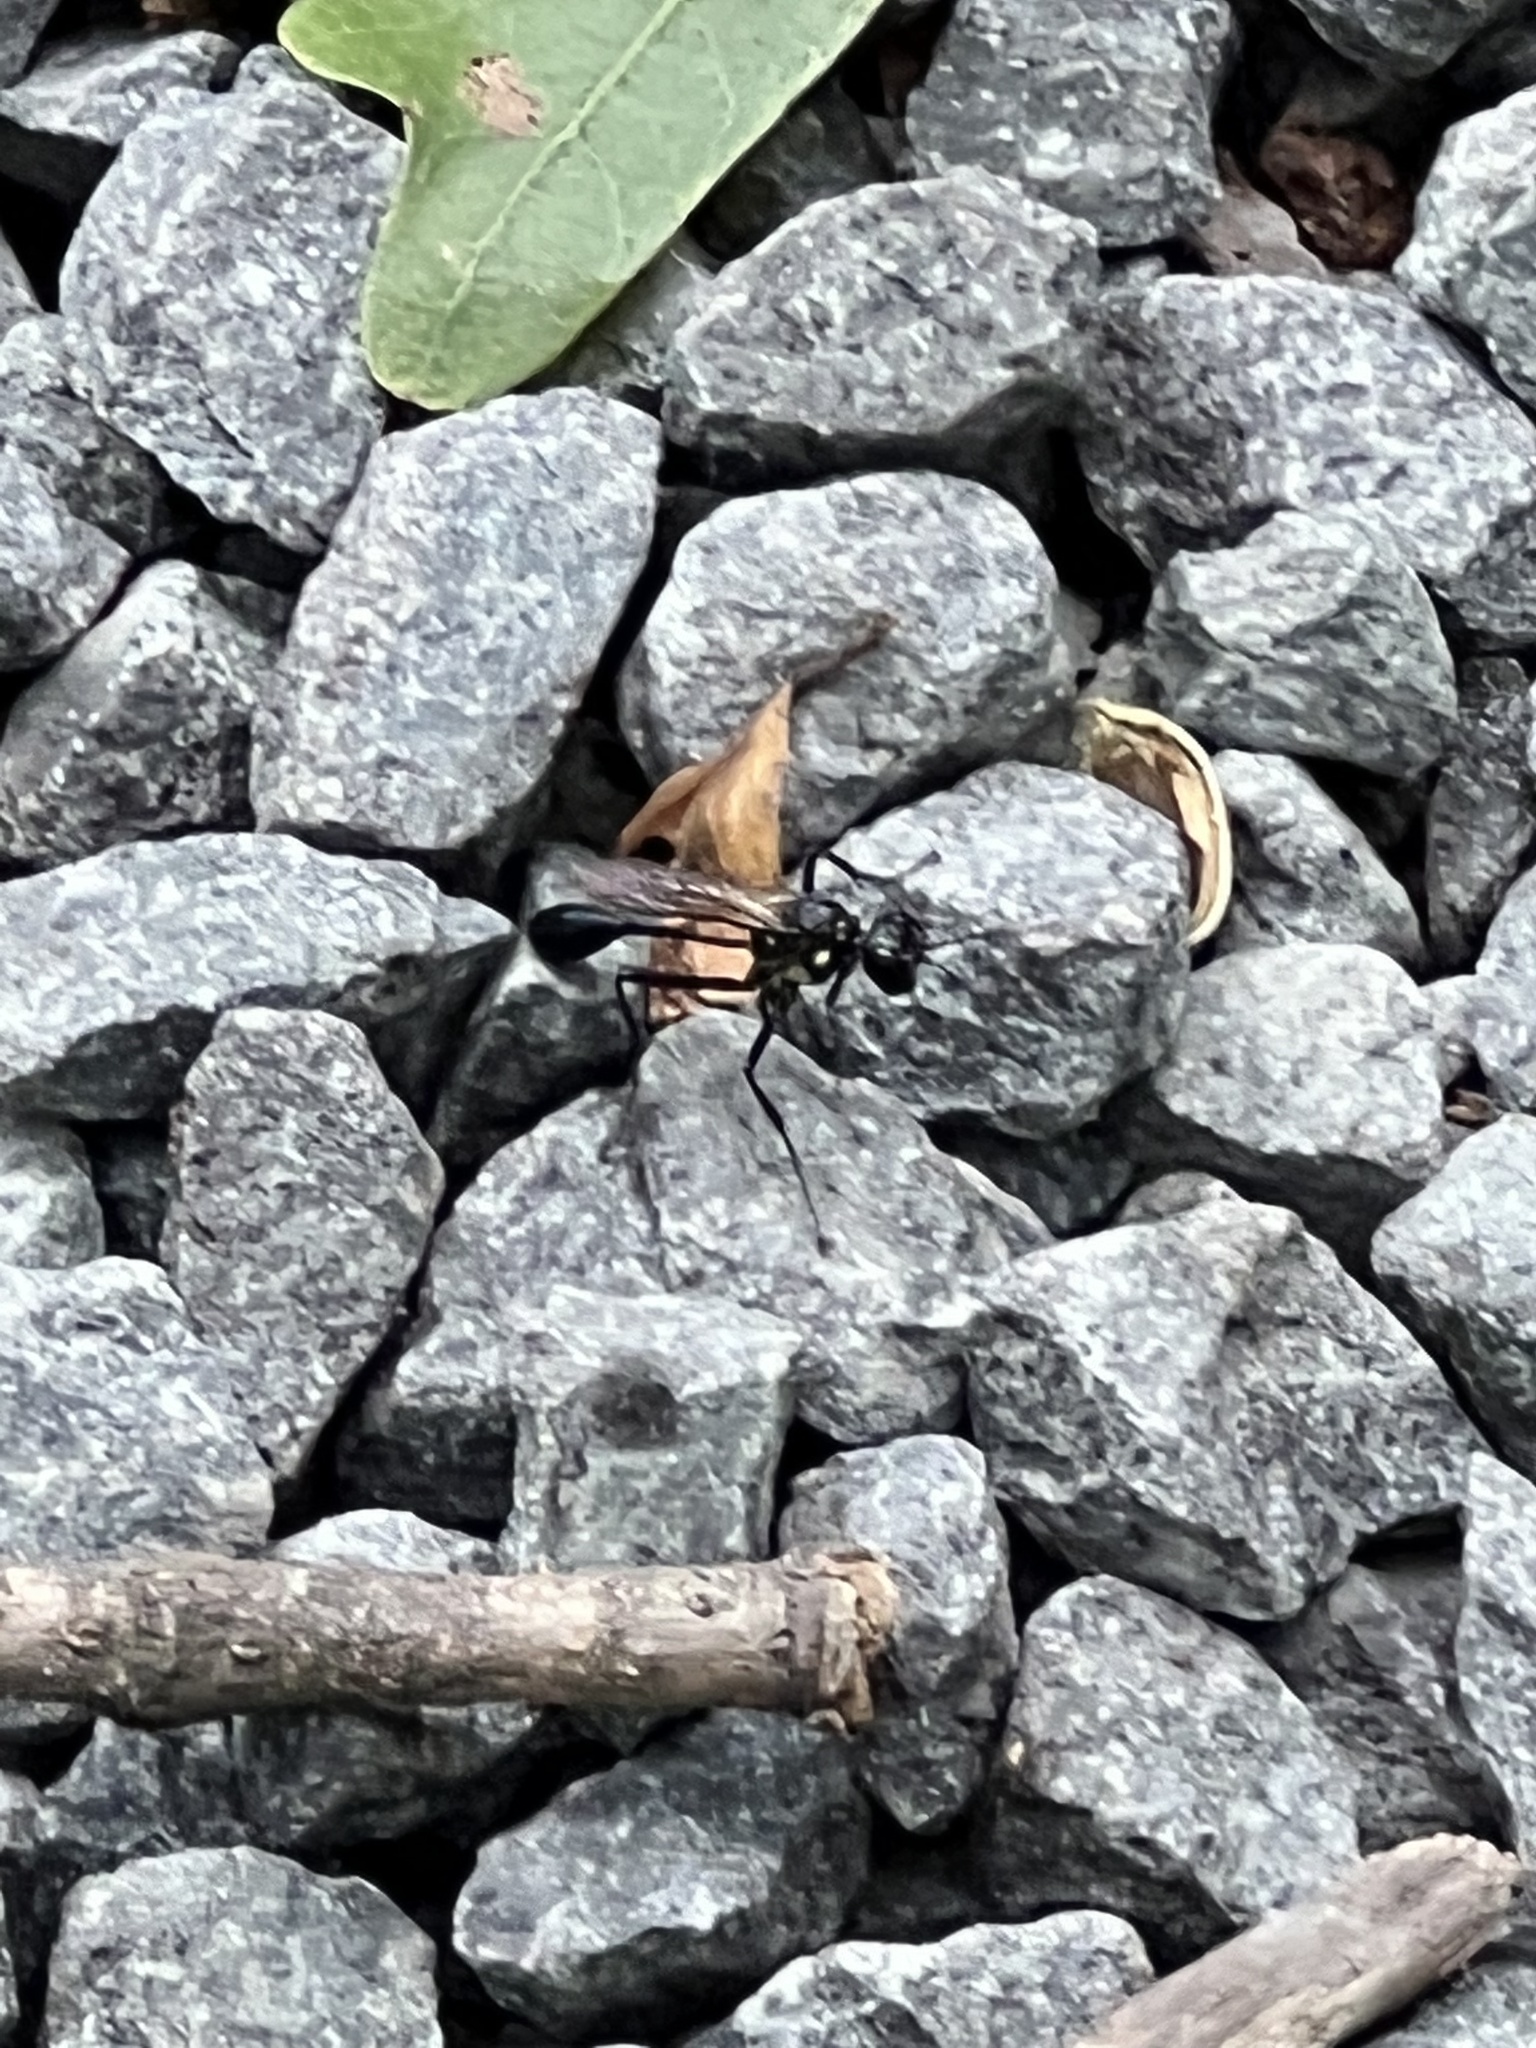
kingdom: Animalia
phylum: Arthropoda
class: Insecta
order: Hymenoptera
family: Sphecidae
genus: Eremnophila
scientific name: Eremnophila aureonotata
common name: Gold-marked thread-waisted wasp
